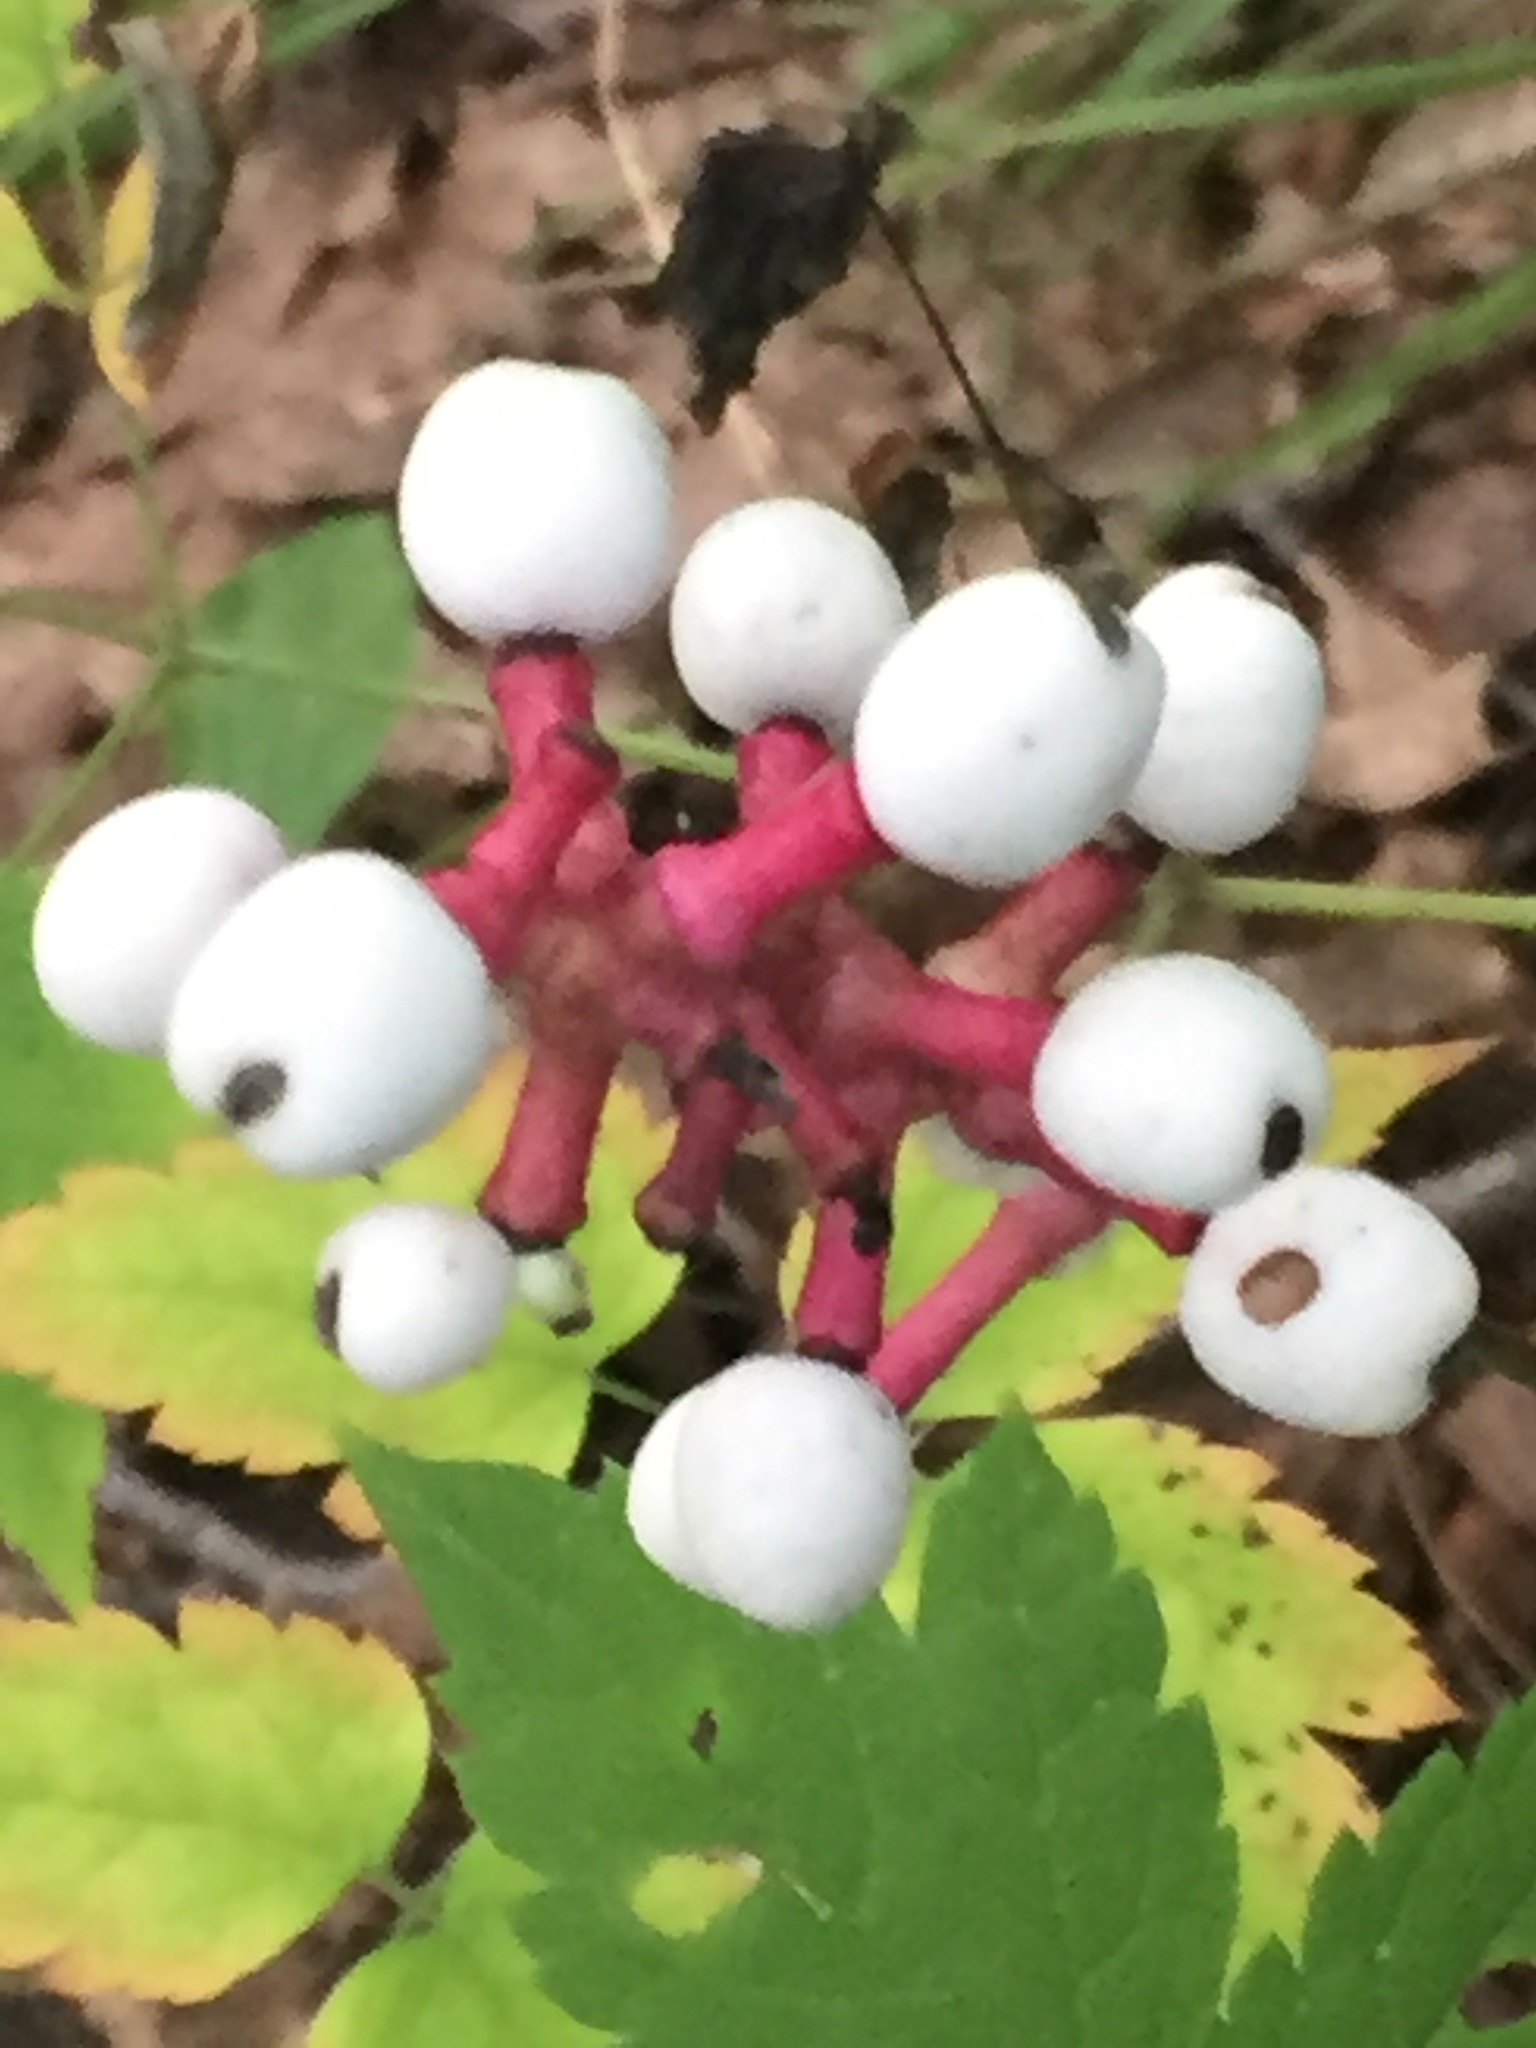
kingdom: Plantae
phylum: Tracheophyta
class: Magnoliopsida
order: Ranunculales
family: Ranunculaceae
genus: Actaea
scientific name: Actaea pachypoda
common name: Doll's-eyes
